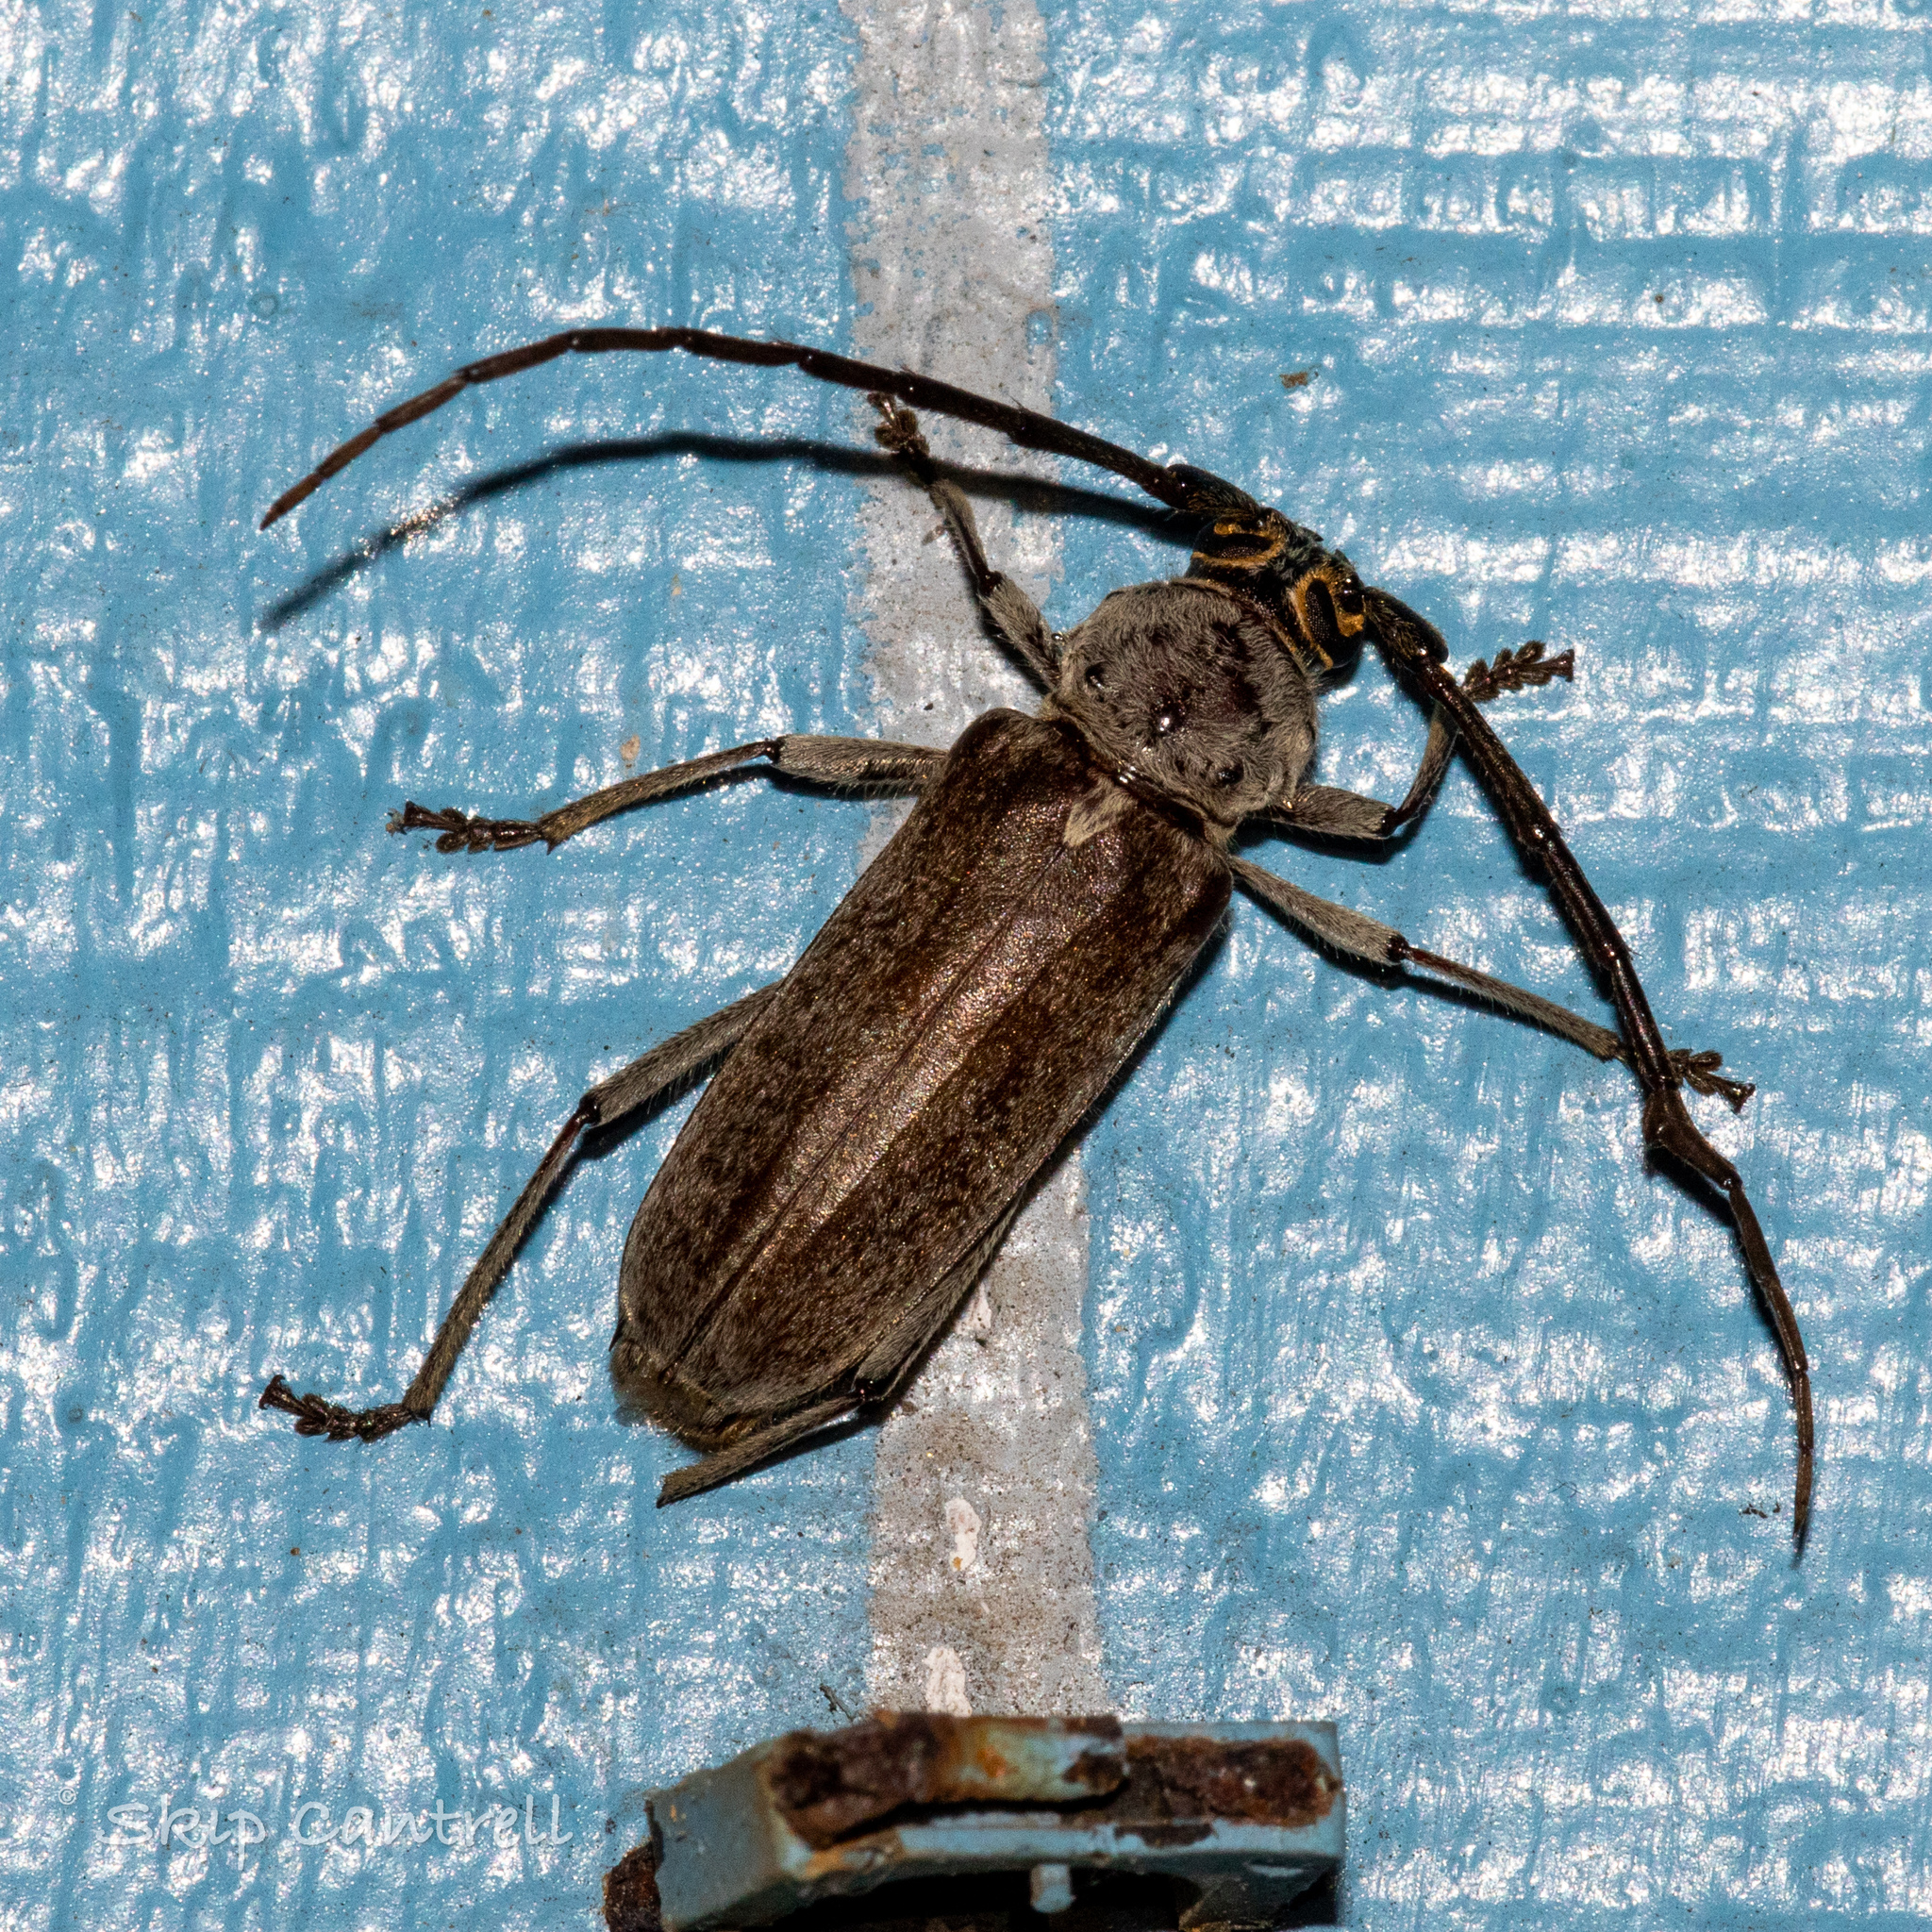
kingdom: Animalia
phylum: Arthropoda
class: Insecta
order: Coleoptera
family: Cerambycidae
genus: Gnaphalodes
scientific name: Gnaphalodes trachyderoides
